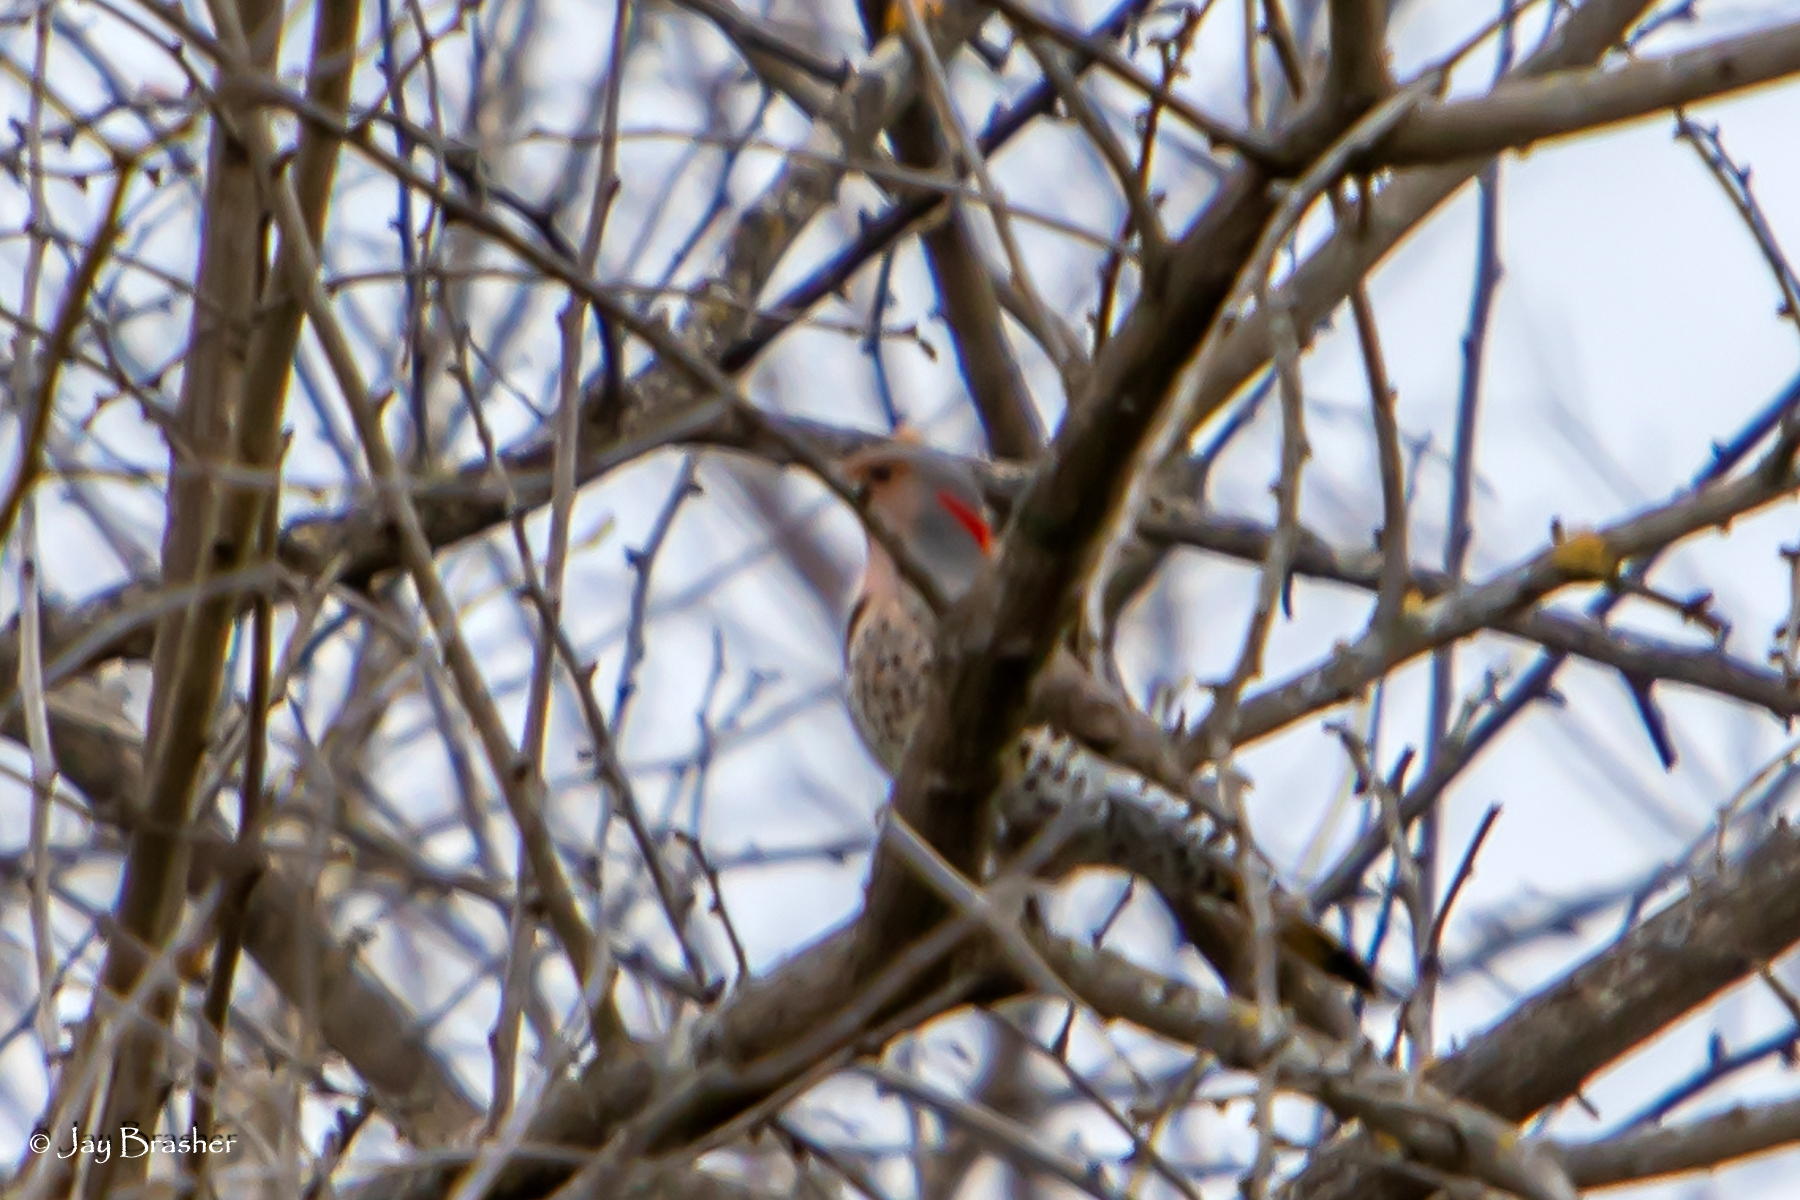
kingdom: Animalia
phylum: Chordata
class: Aves
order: Piciformes
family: Picidae
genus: Colaptes
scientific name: Colaptes auratus
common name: Northern flicker
